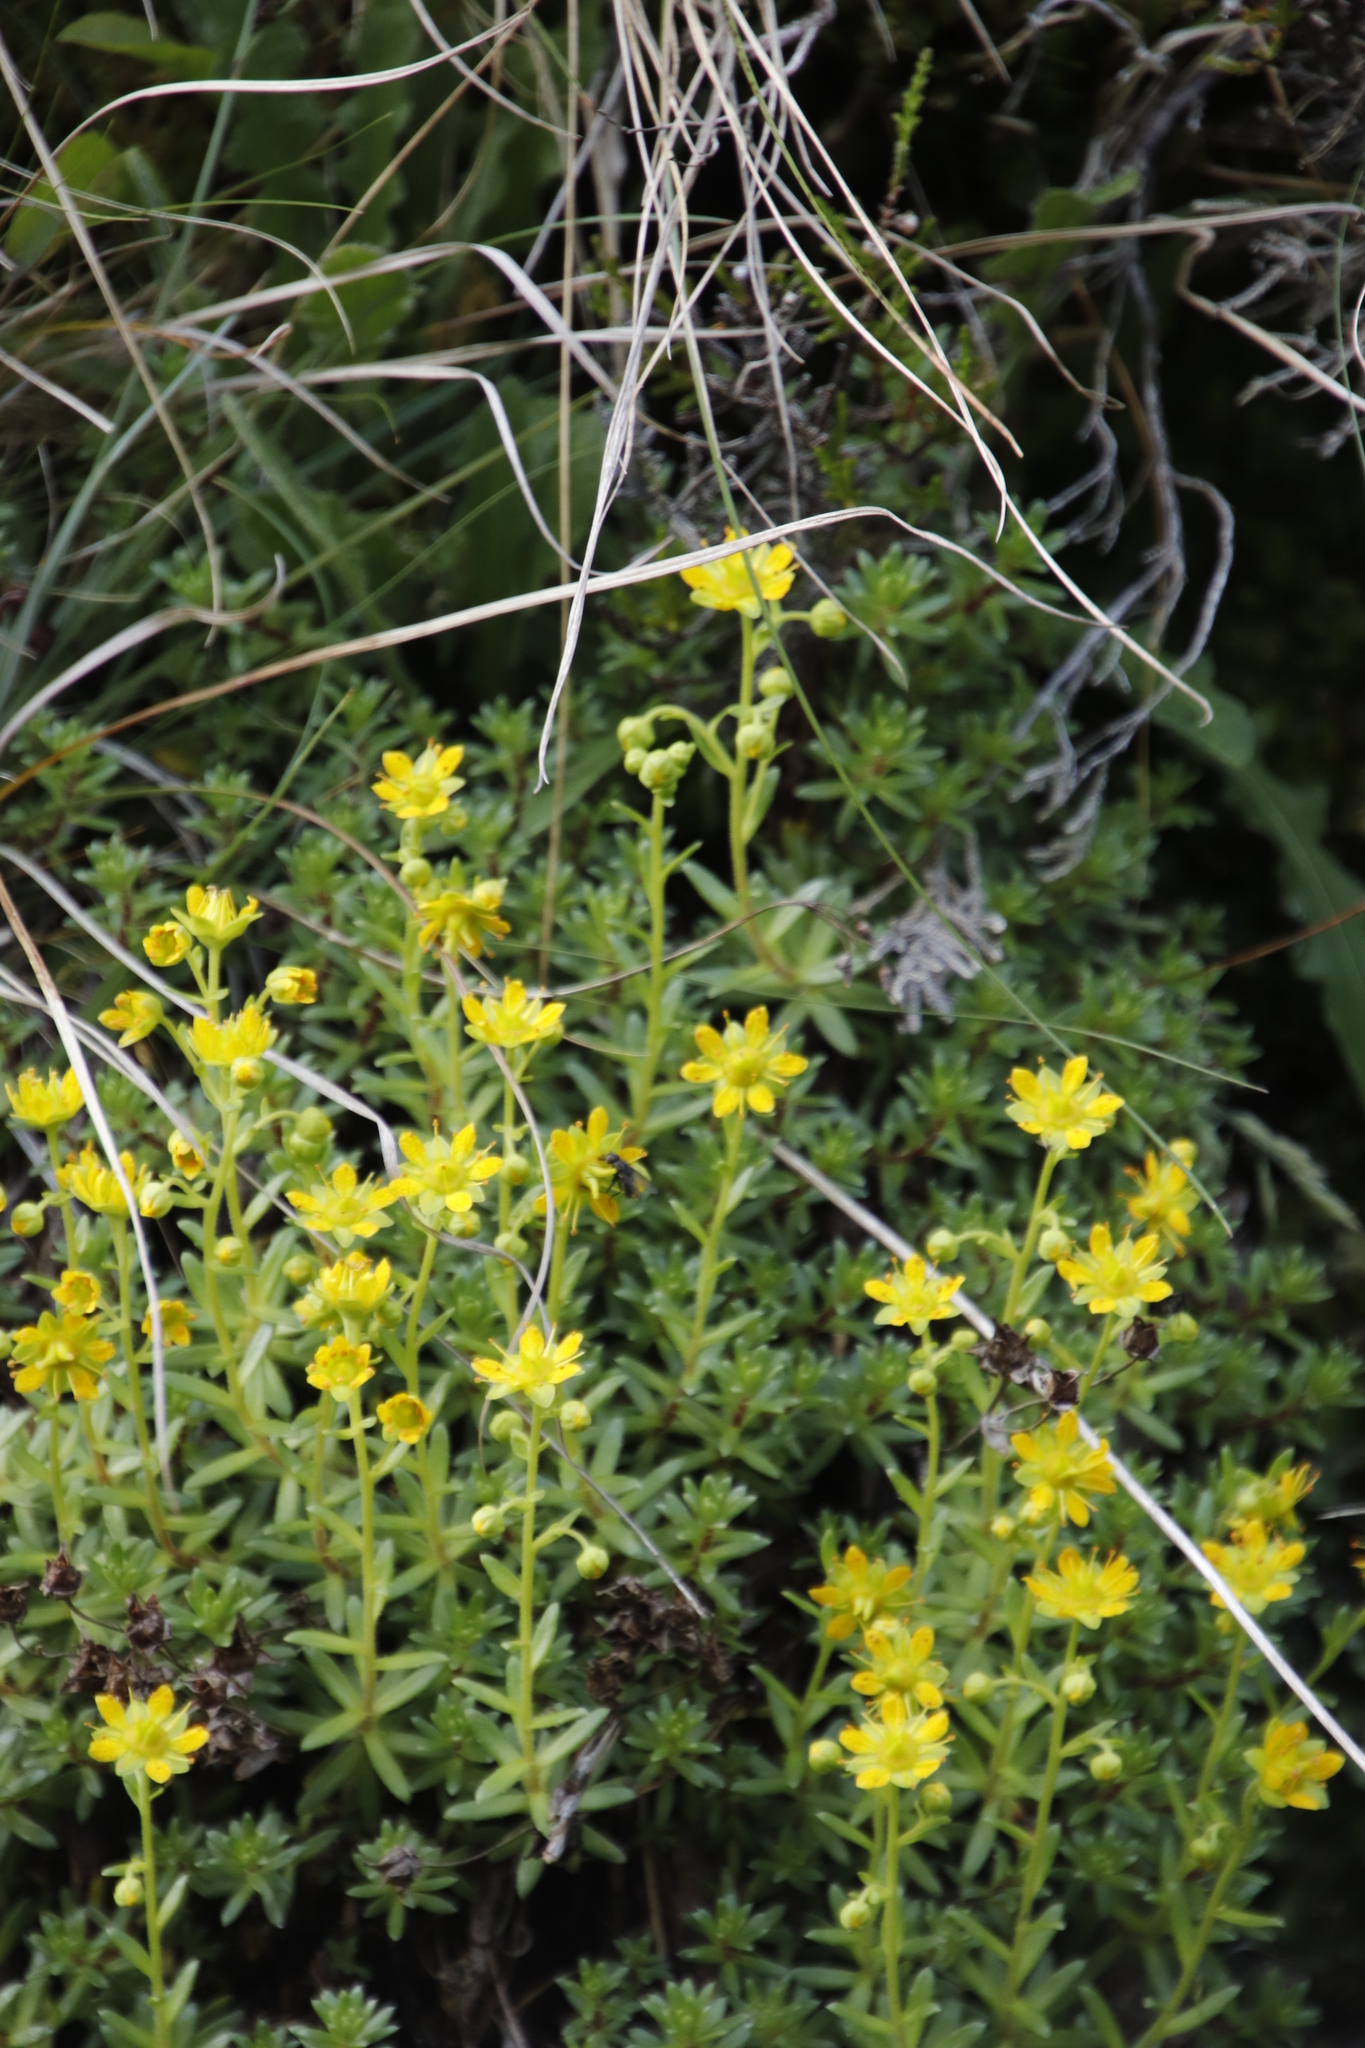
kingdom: Plantae
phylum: Tracheophyta
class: Magnoliopsida
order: Saxifragales
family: Saxifragaceae
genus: Saxifraga
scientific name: Saxifraga aizoides
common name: Yellow mountain saxifrage
